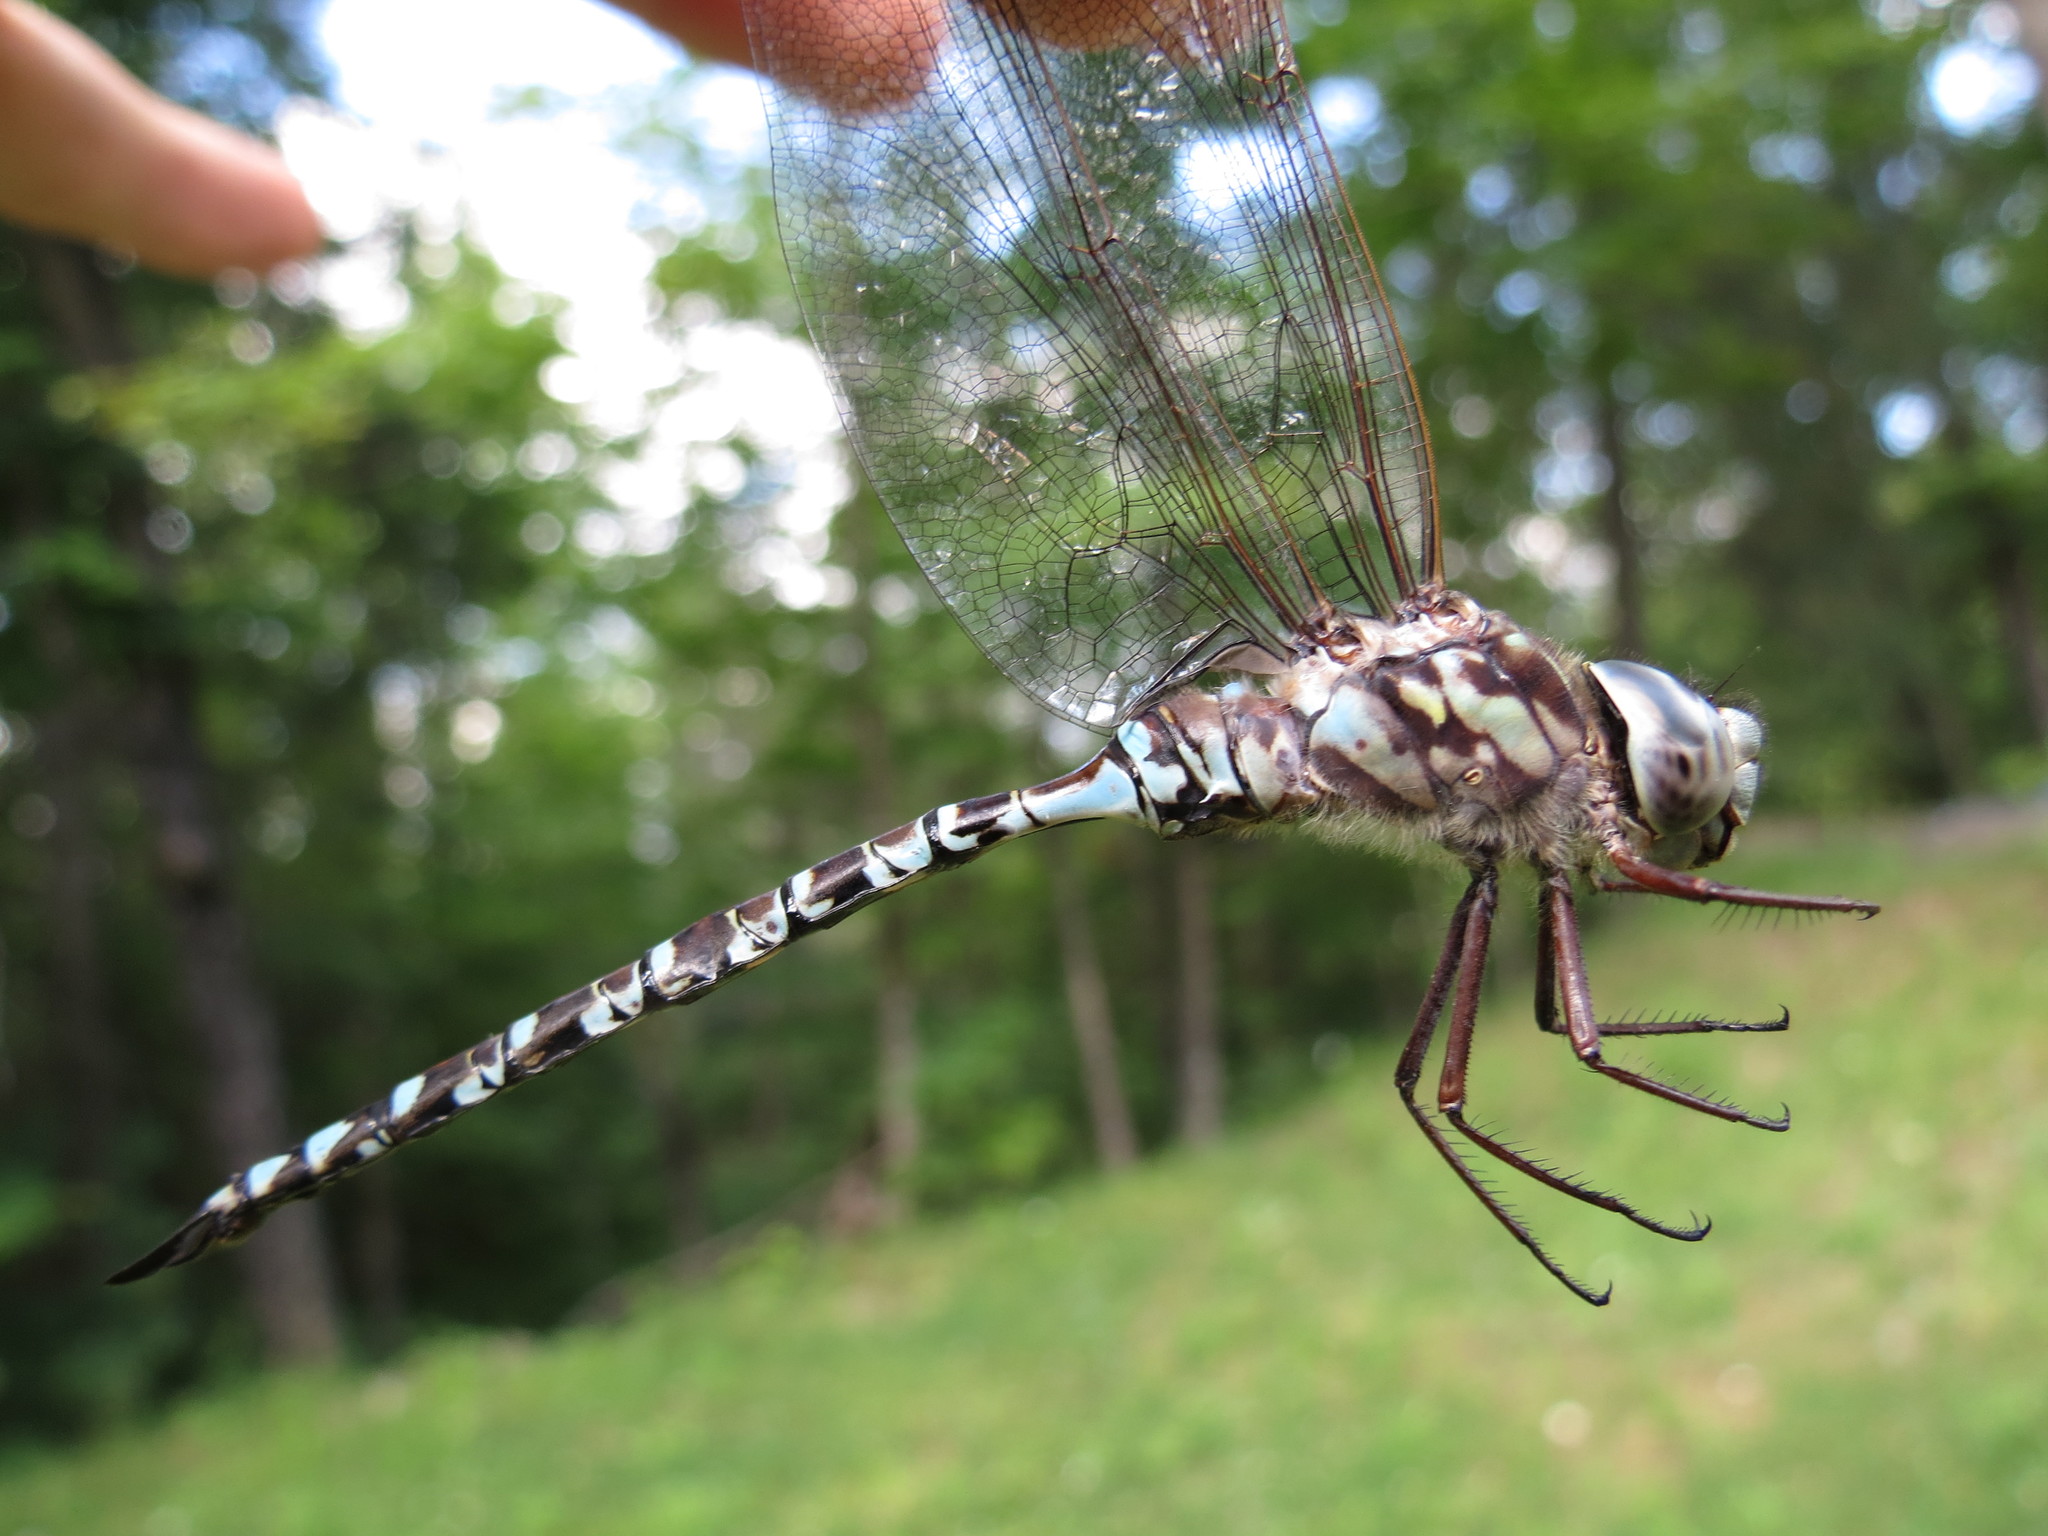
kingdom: Animalia
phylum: Arthropoda
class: Insecta
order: Odonata
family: Aeshnidae
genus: Aeshna
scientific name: Aeshna clepsydra
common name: Mottled darner
